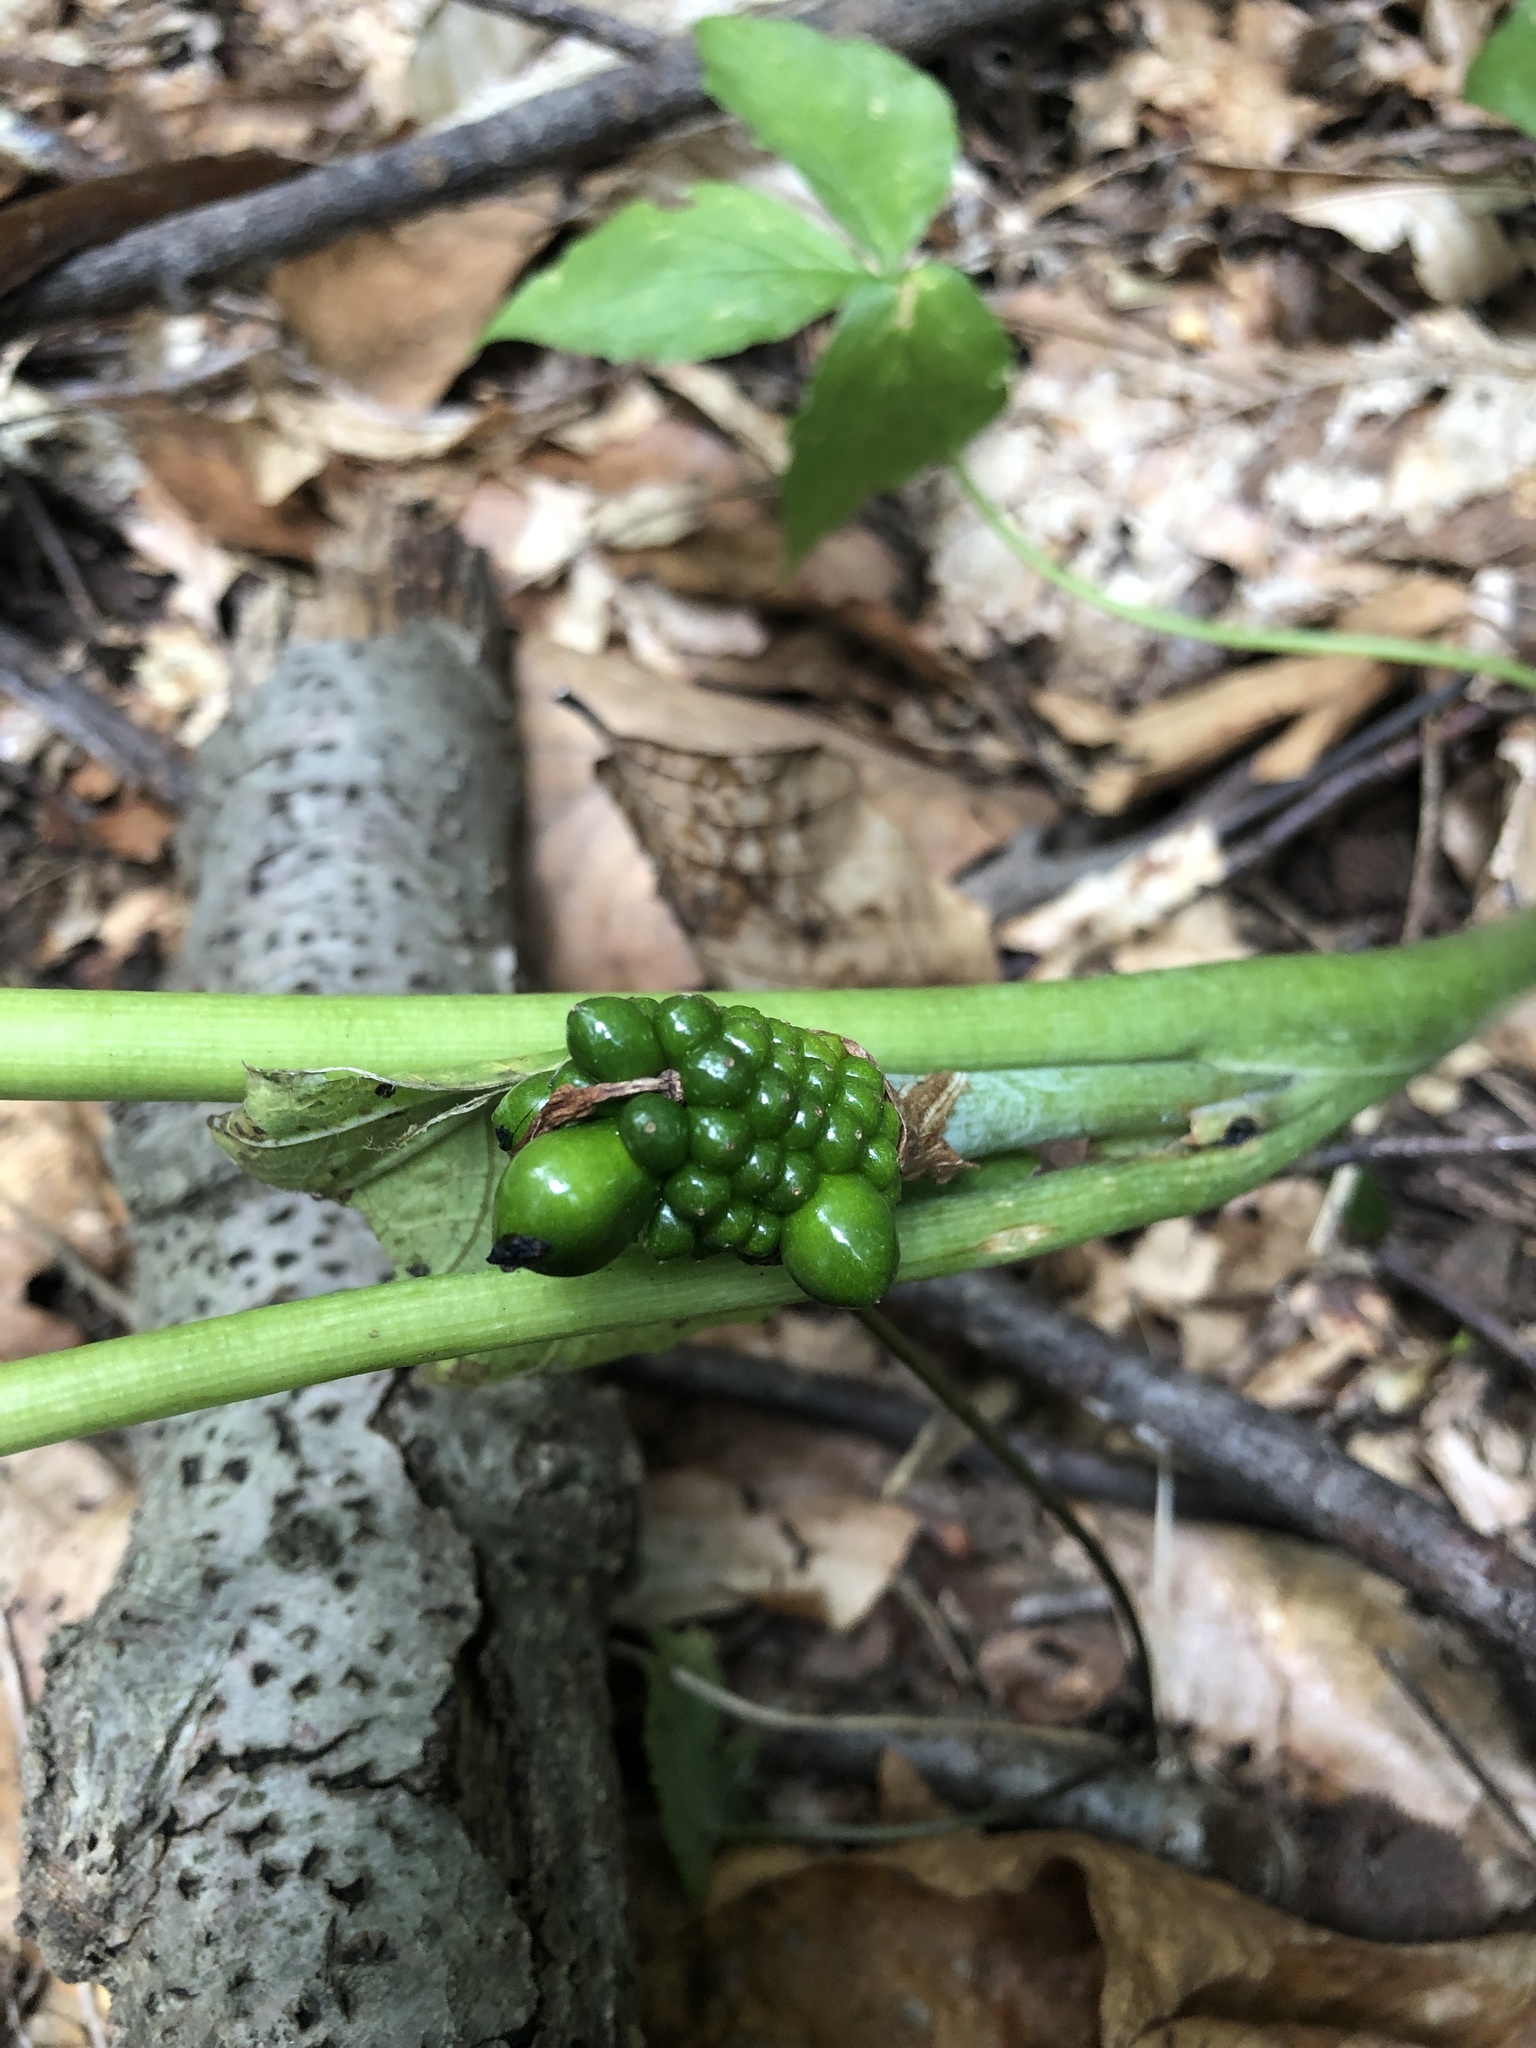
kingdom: Plantae
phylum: Tracheophyta
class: Liliopsida
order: Alismatales
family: Araceae
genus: Arisaema
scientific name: Arisaema triphyllum
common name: Jack-in-the-pulpit
